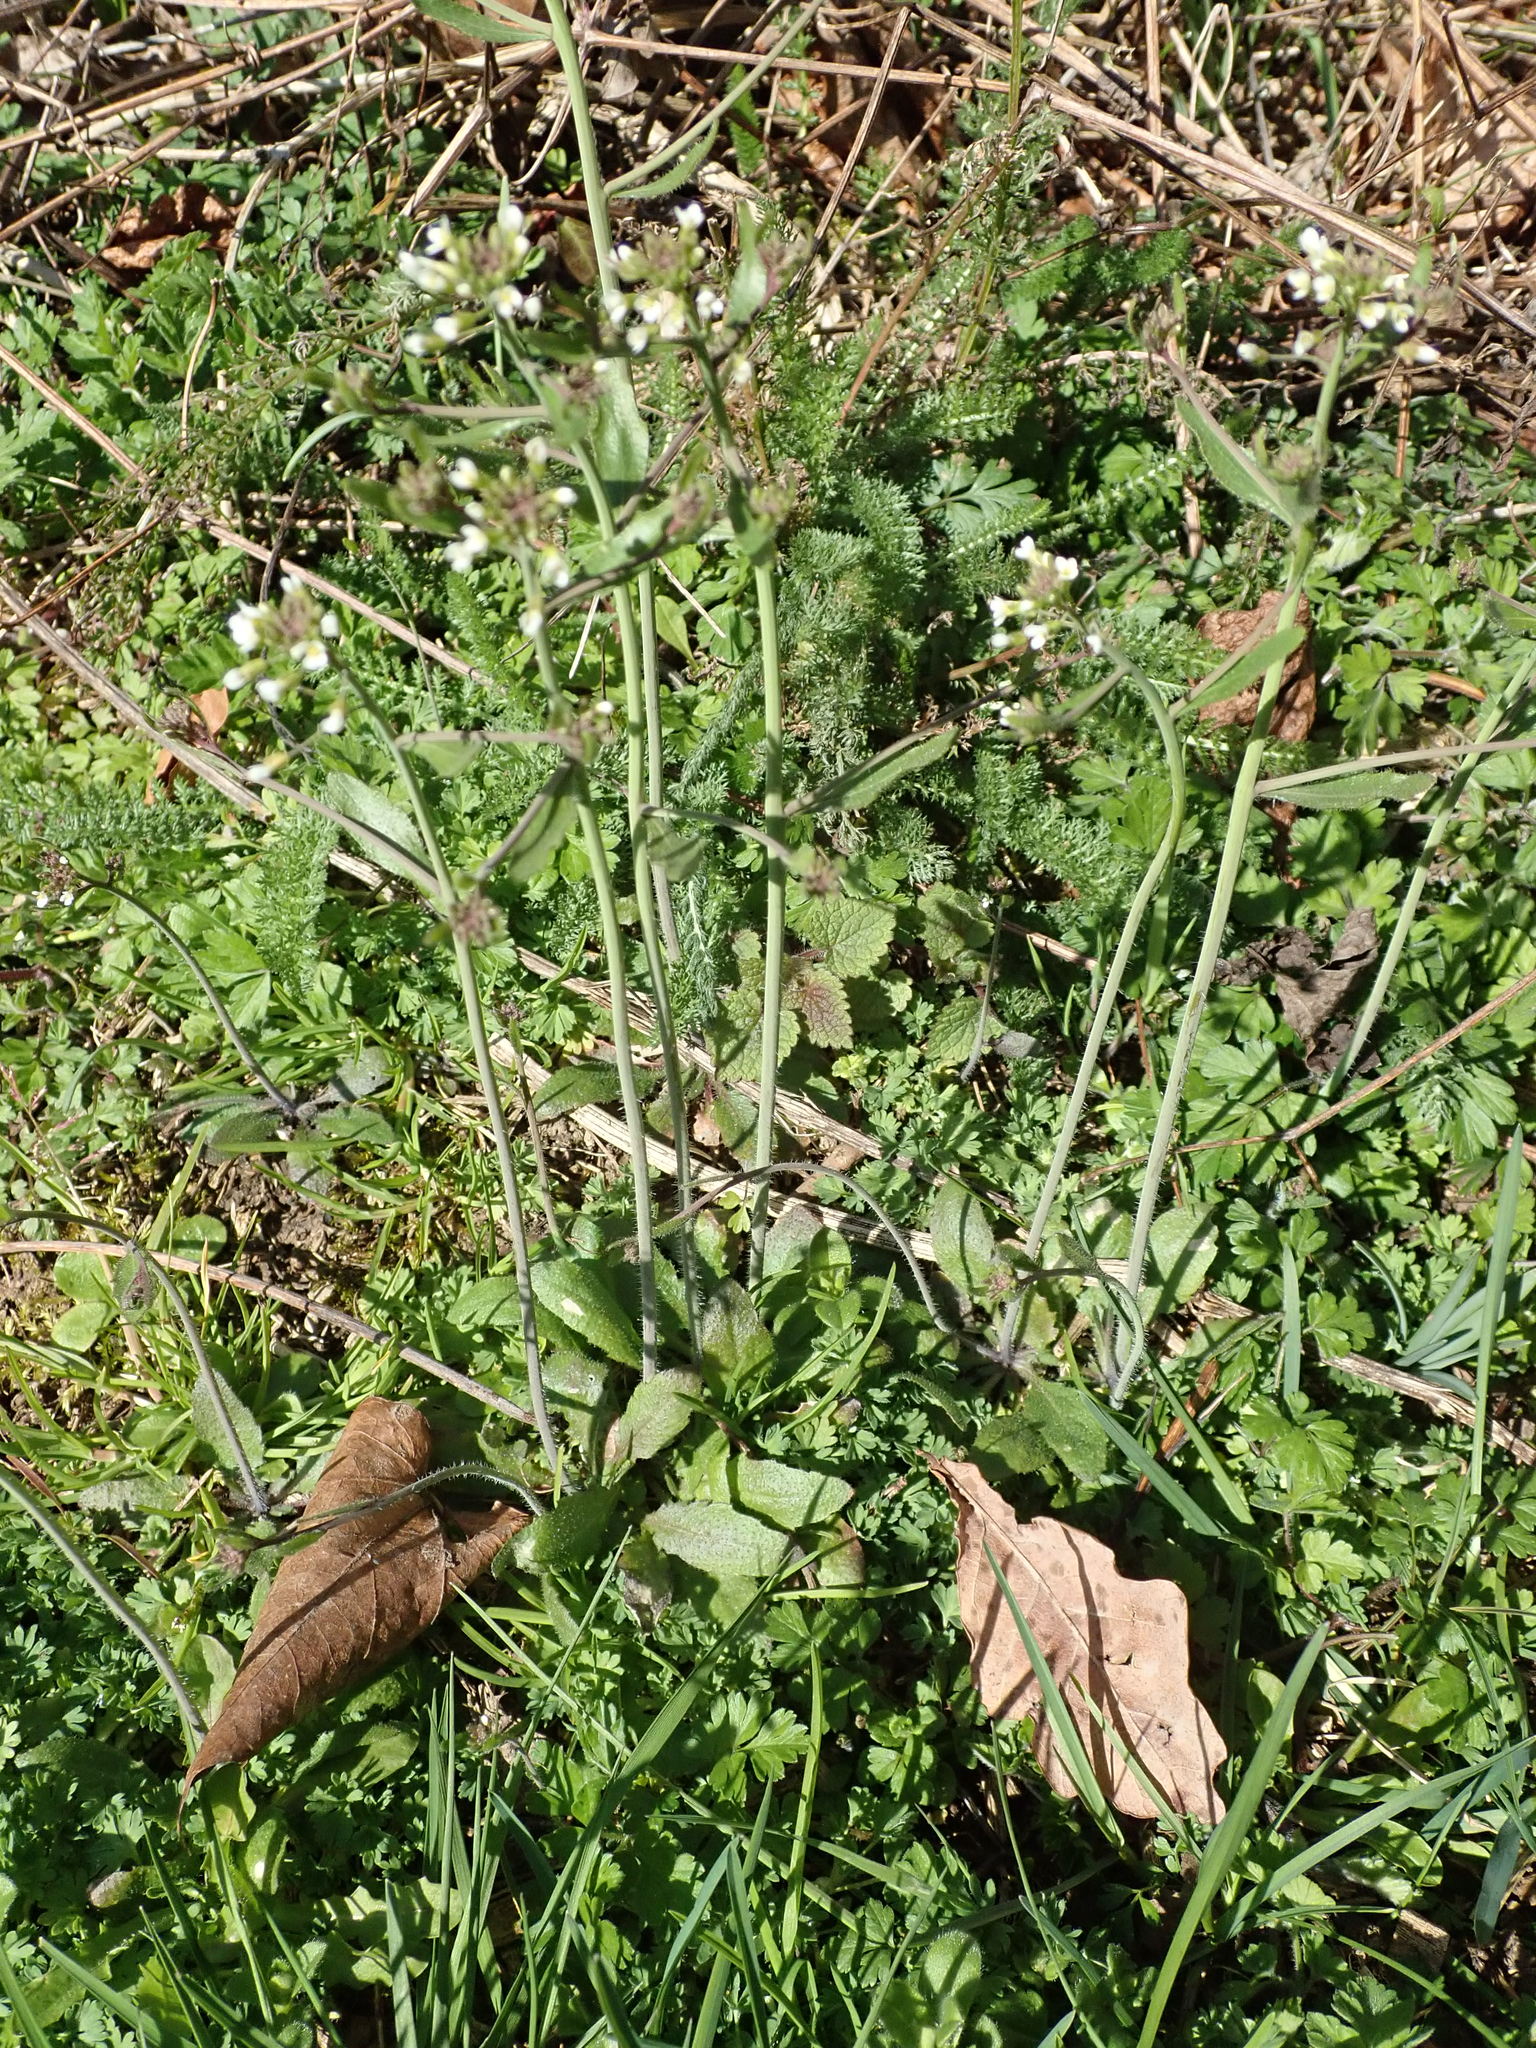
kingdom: Plantae
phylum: Tracheophyta
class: Magnoliopsida
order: Brassicales
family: Brassicaceae
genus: Arabidopsis
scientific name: Arabidopsis thaliana
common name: Thale cress
